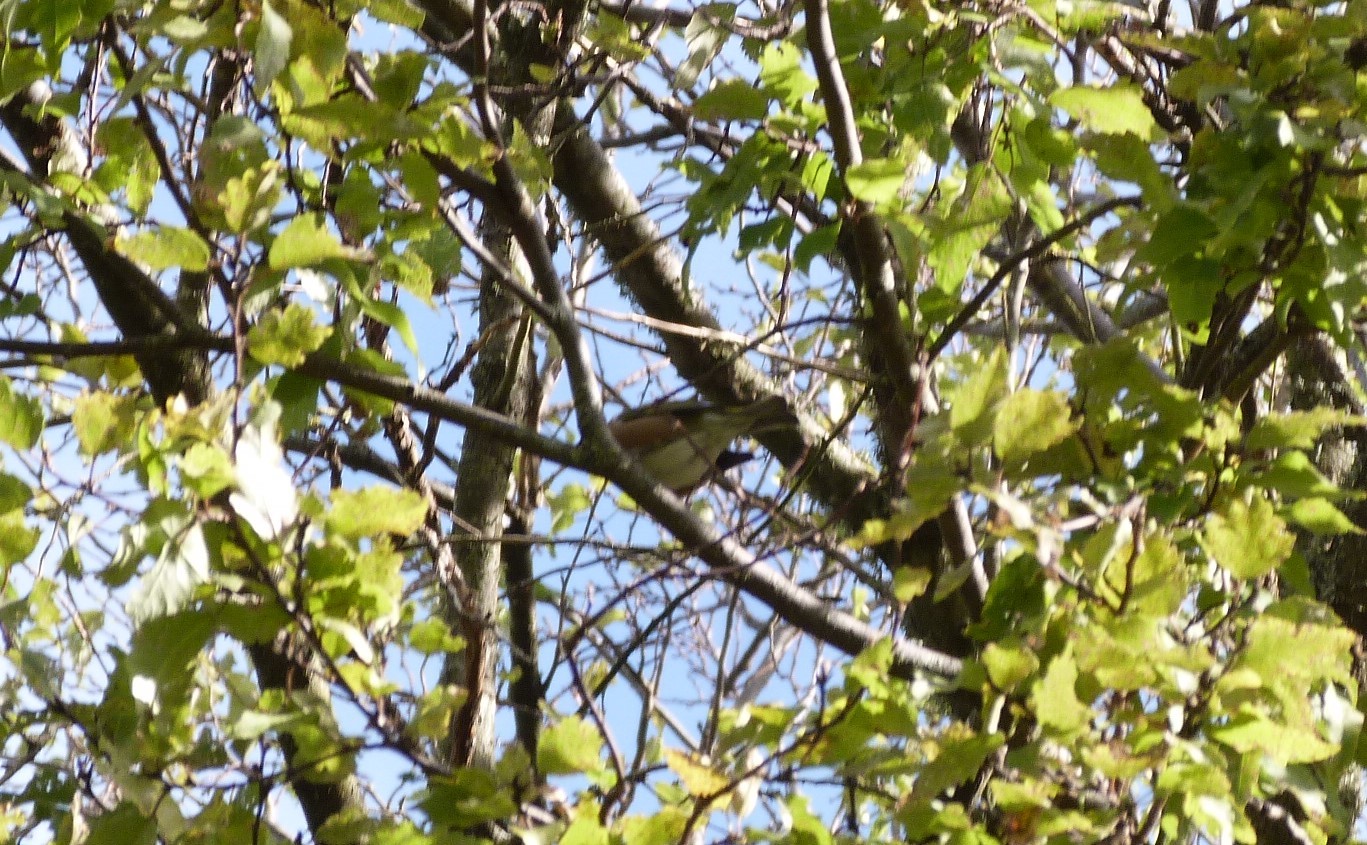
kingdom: Animalia
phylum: Chordata
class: Aves
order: Passeriformes
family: Zosteropidae
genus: Zosterops
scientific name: Zosterops lateralis
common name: Silvereye
